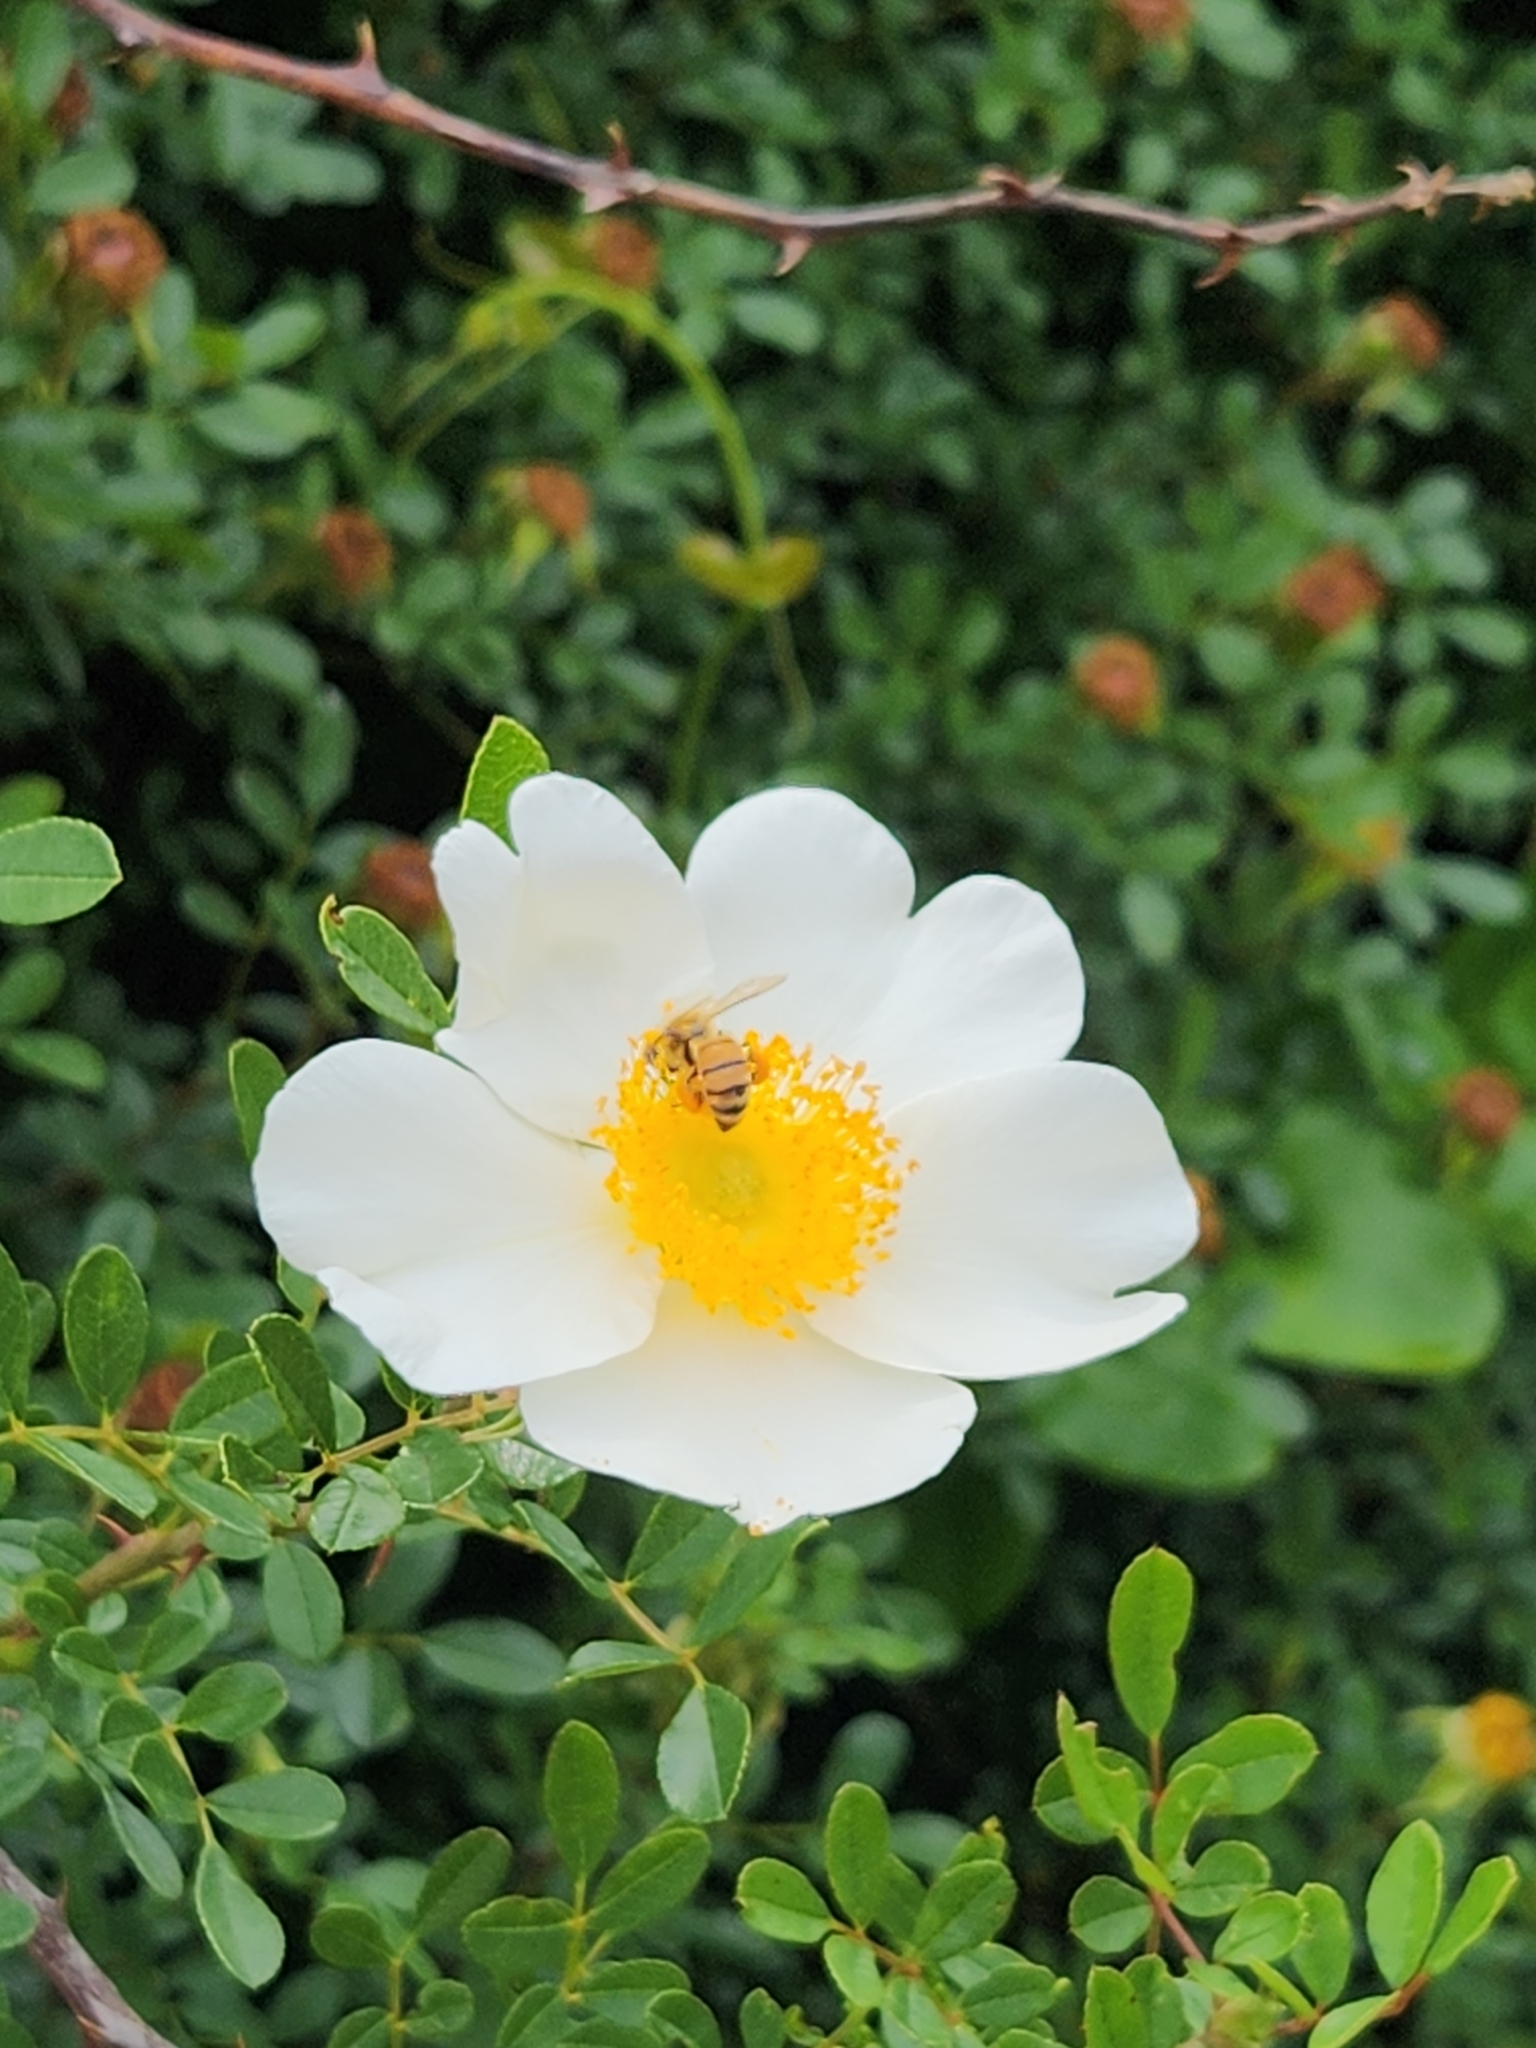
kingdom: Plantae
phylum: Tracheophyta
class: Magnoliopsida
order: Rosales
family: Rosaceae
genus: Rosa
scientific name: Rosa bracteata
